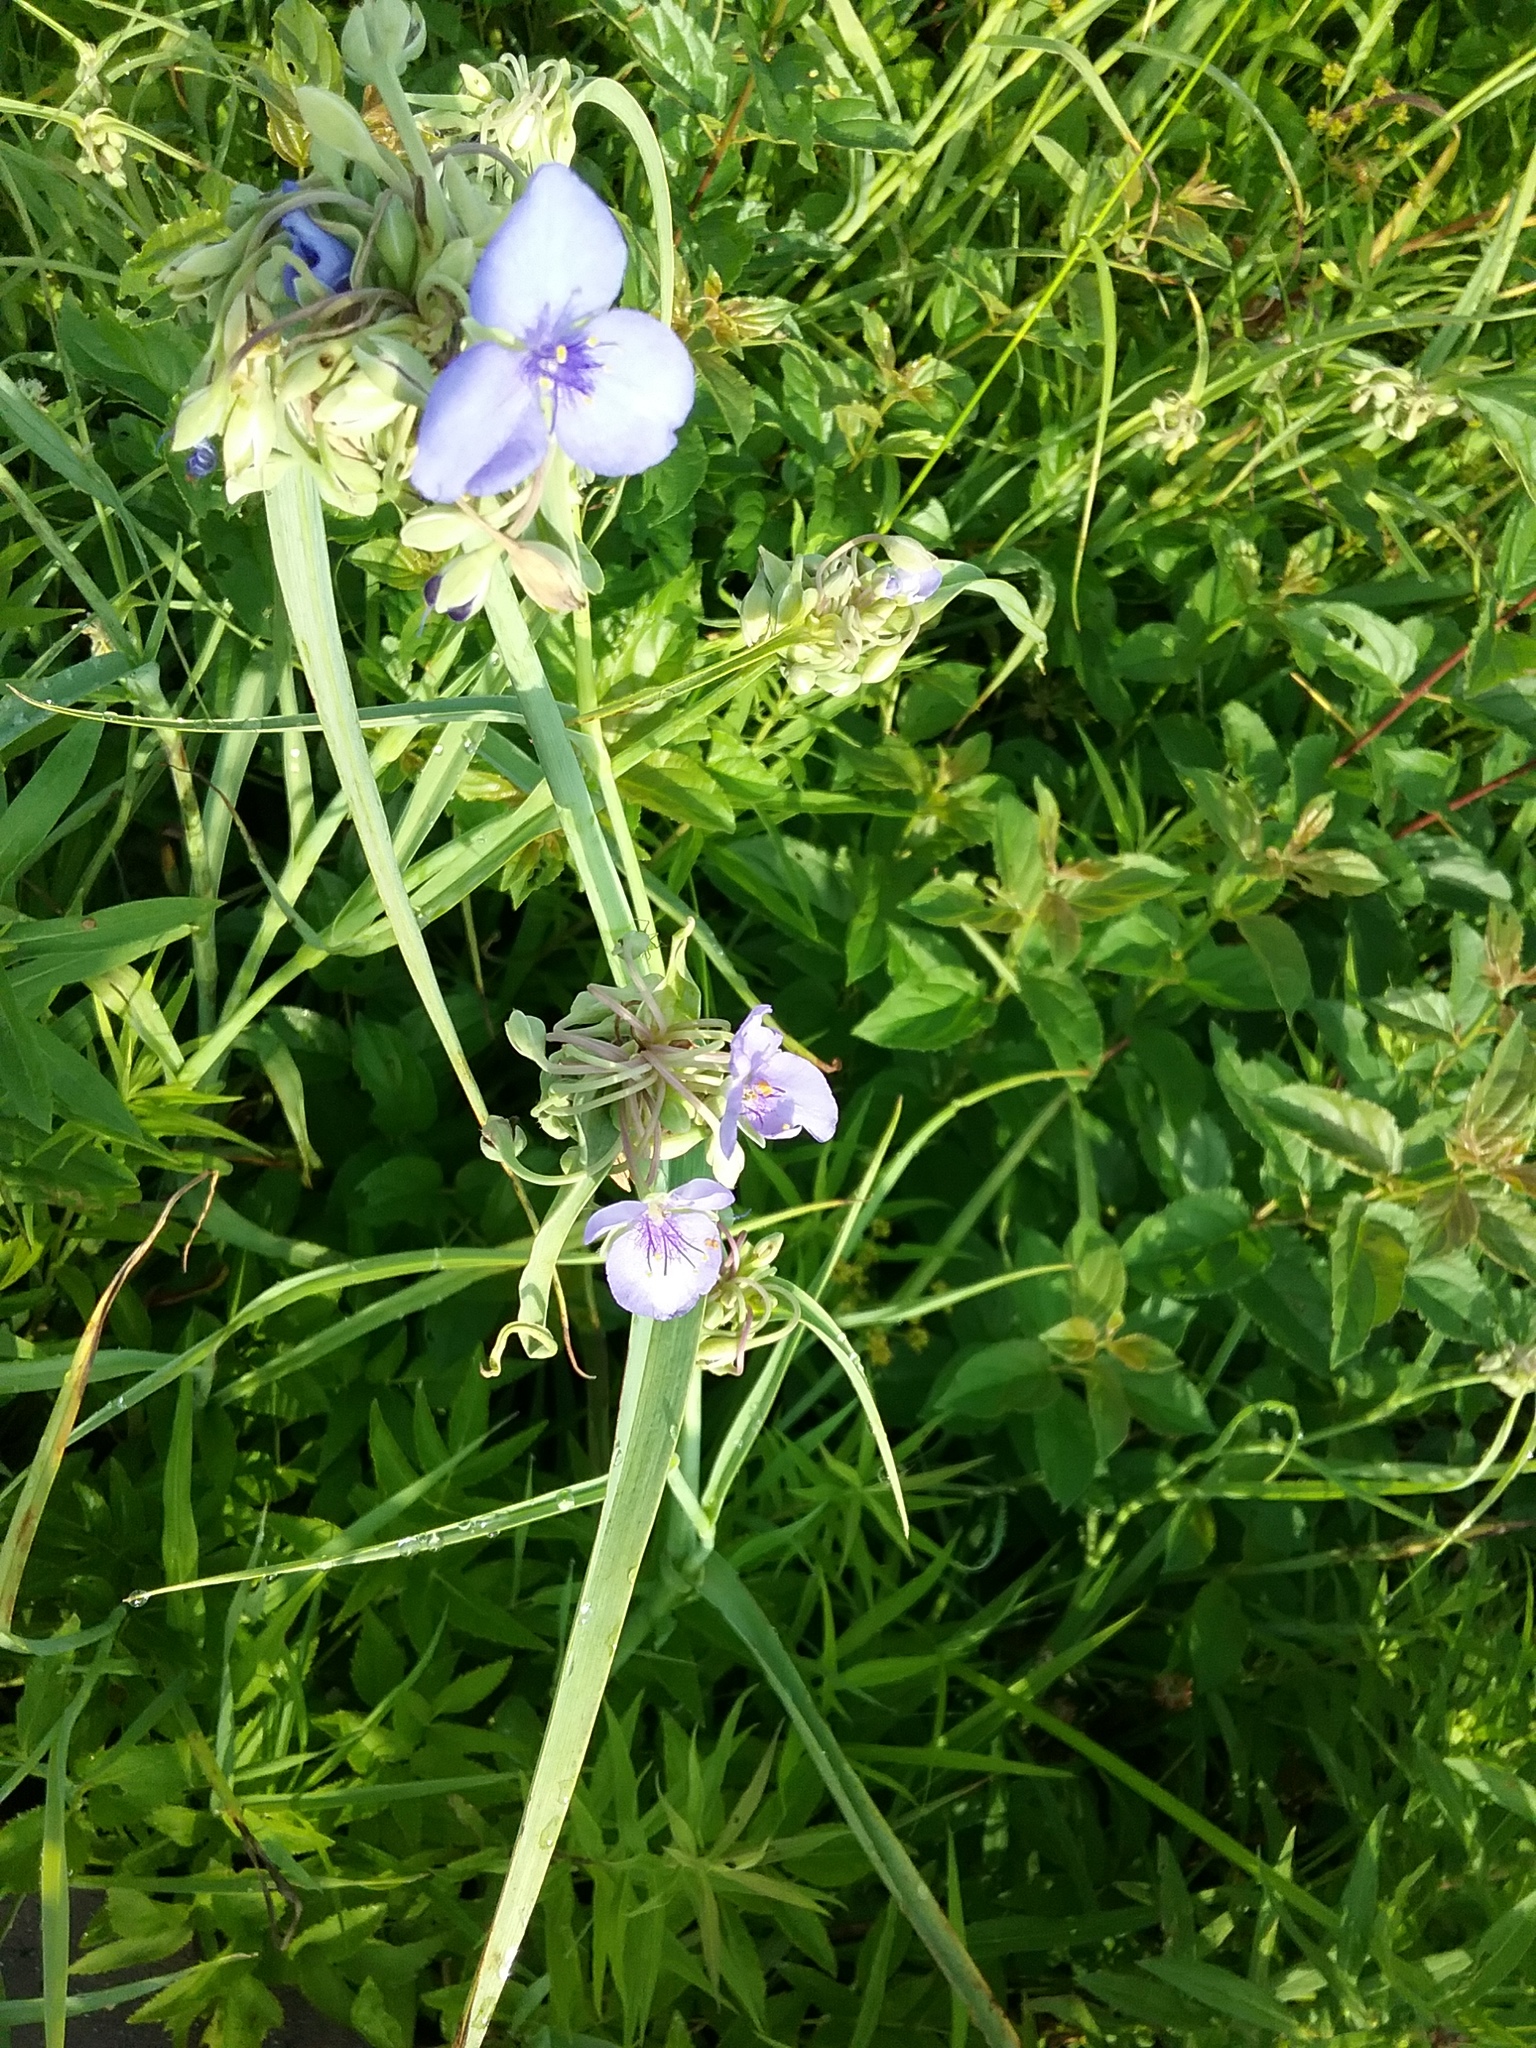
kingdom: Plantae
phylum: Tracheophyta
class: Liliopsida
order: Commelinales
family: Commelinaceae
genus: Tradescantia
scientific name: Tradescantia ohiensis
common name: Ohio spiderwort
